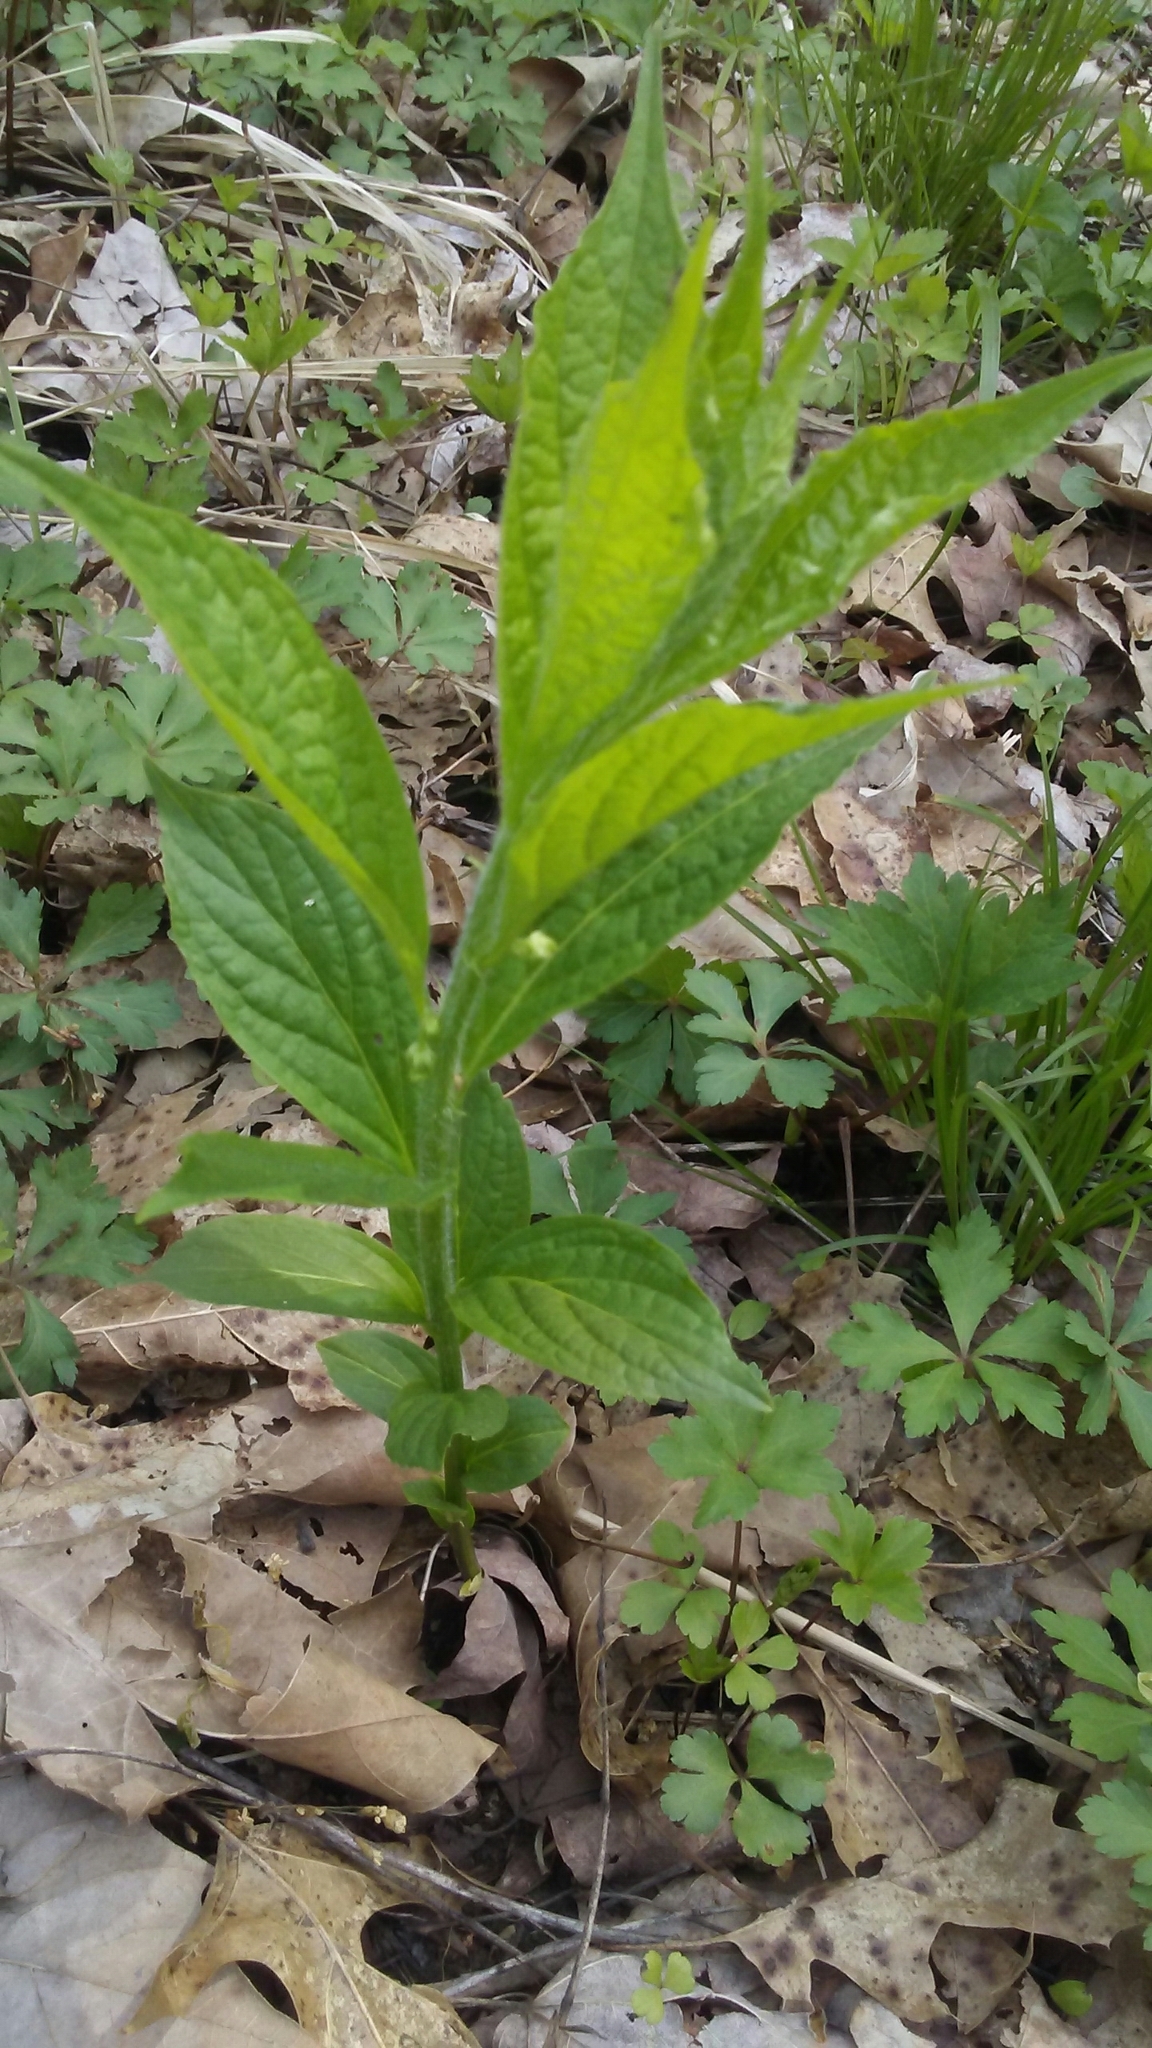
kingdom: Plantae
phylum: Tracheophyta
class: Magnoliopsida
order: Malpighiales
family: Violaceae
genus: Cubelium
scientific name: Cubelium concolor
